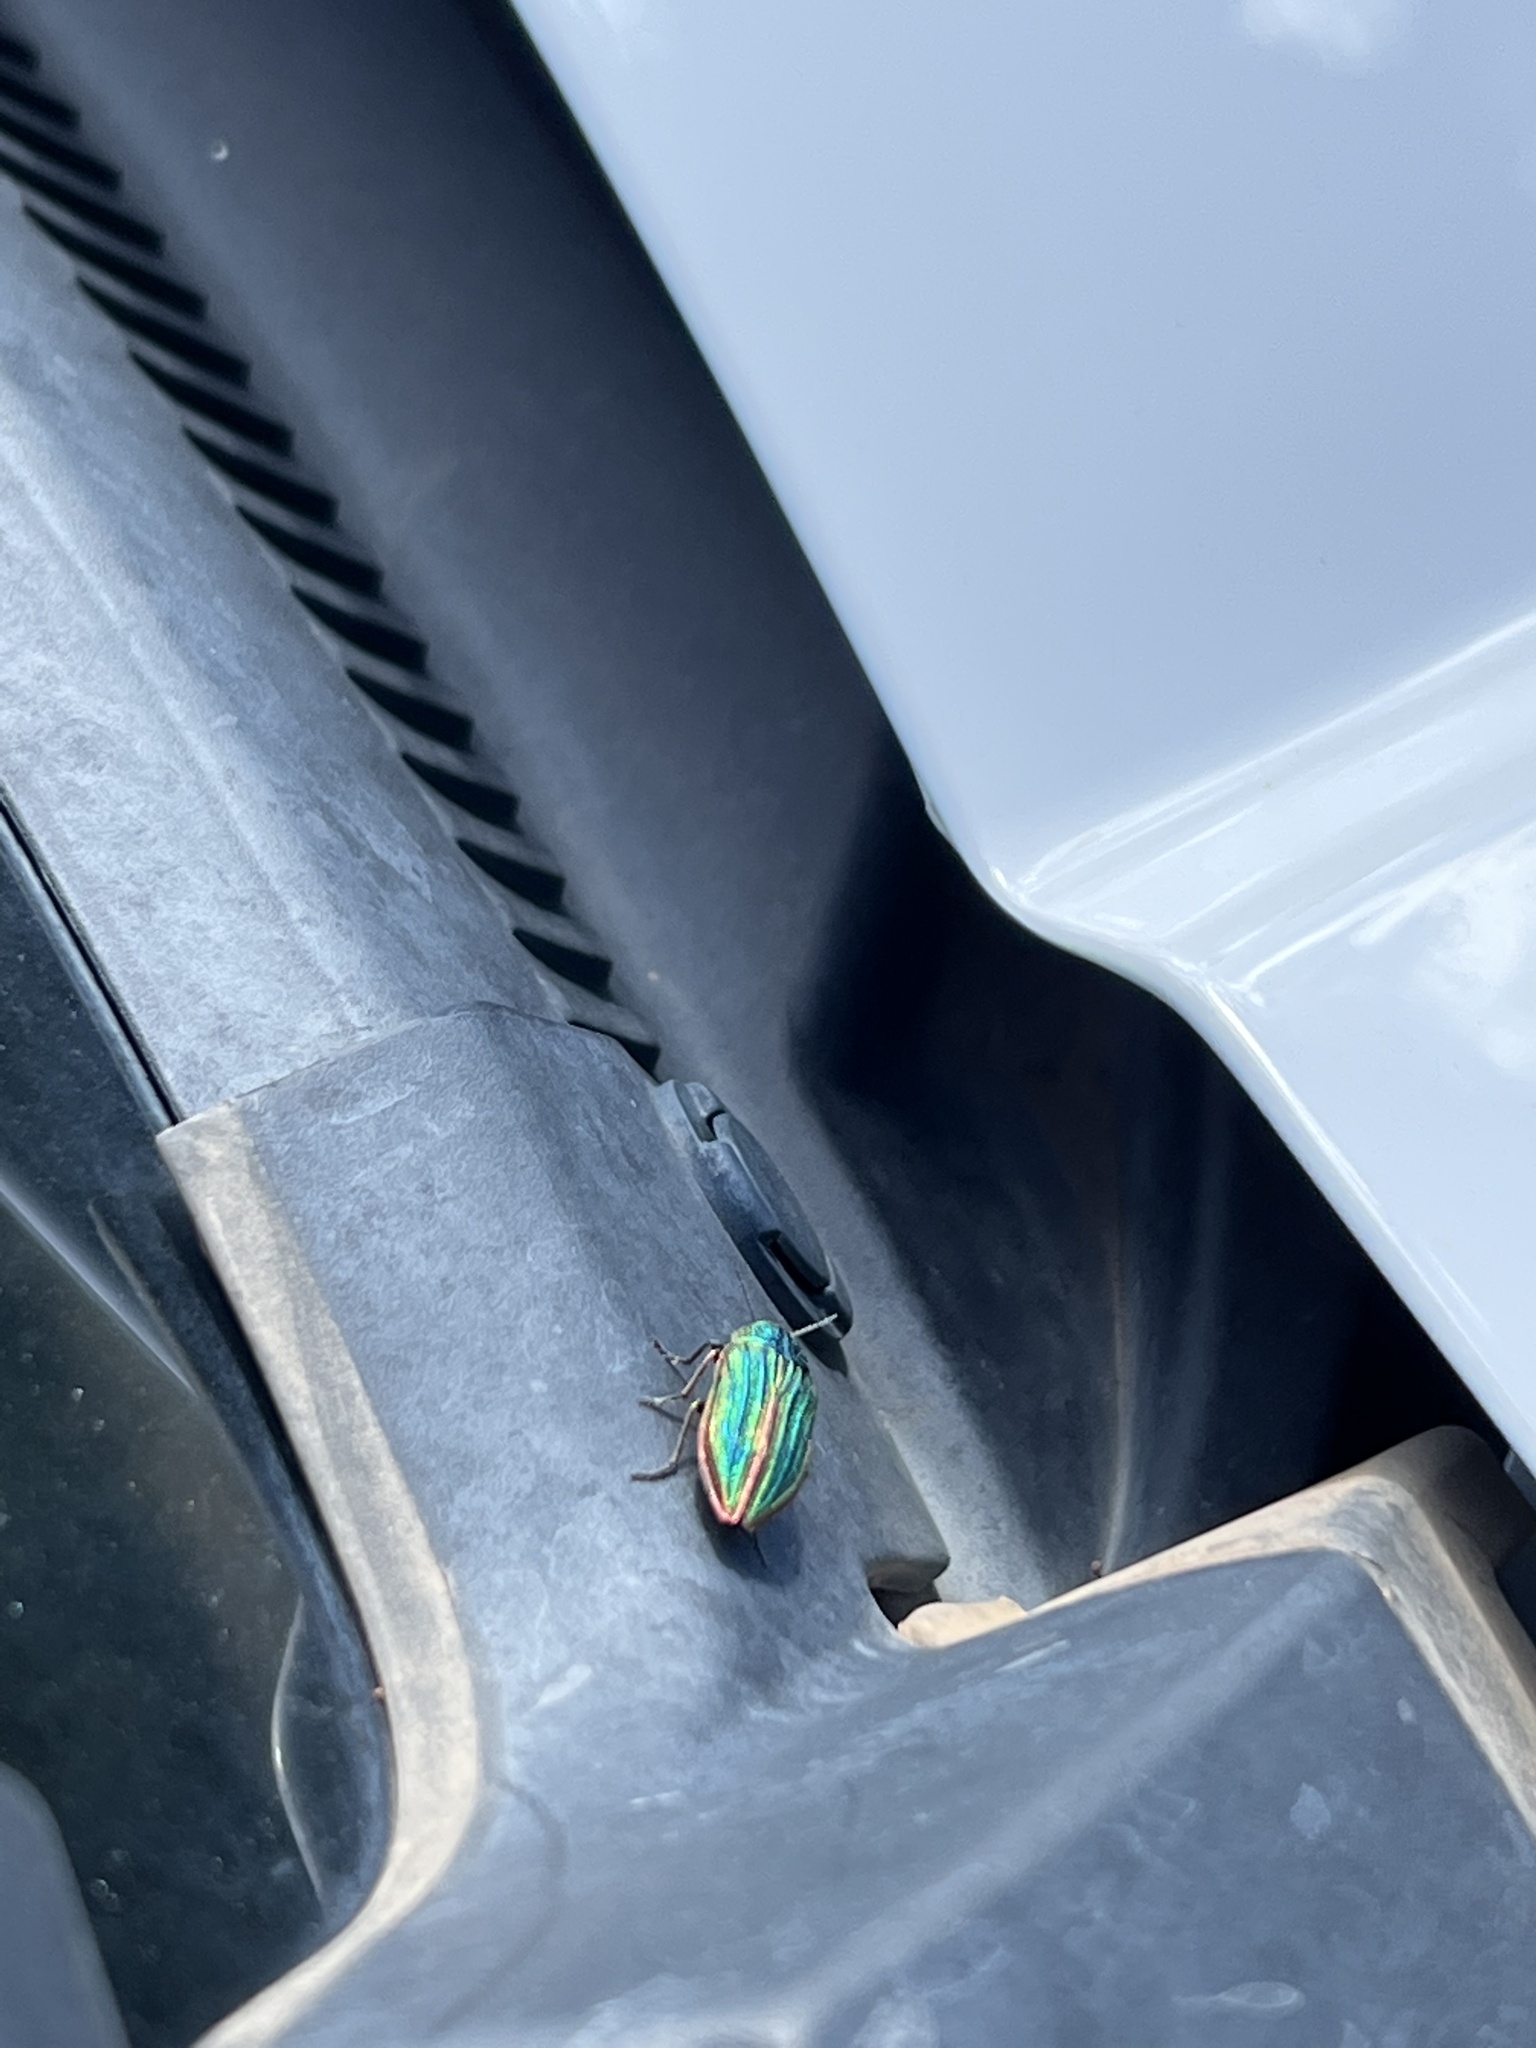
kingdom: Animalia
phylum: Arthropoda
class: Insecta
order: Coleoptera
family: Buprestidae
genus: Buprestis
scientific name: Buprestis aurulenta
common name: Golden buprestid
